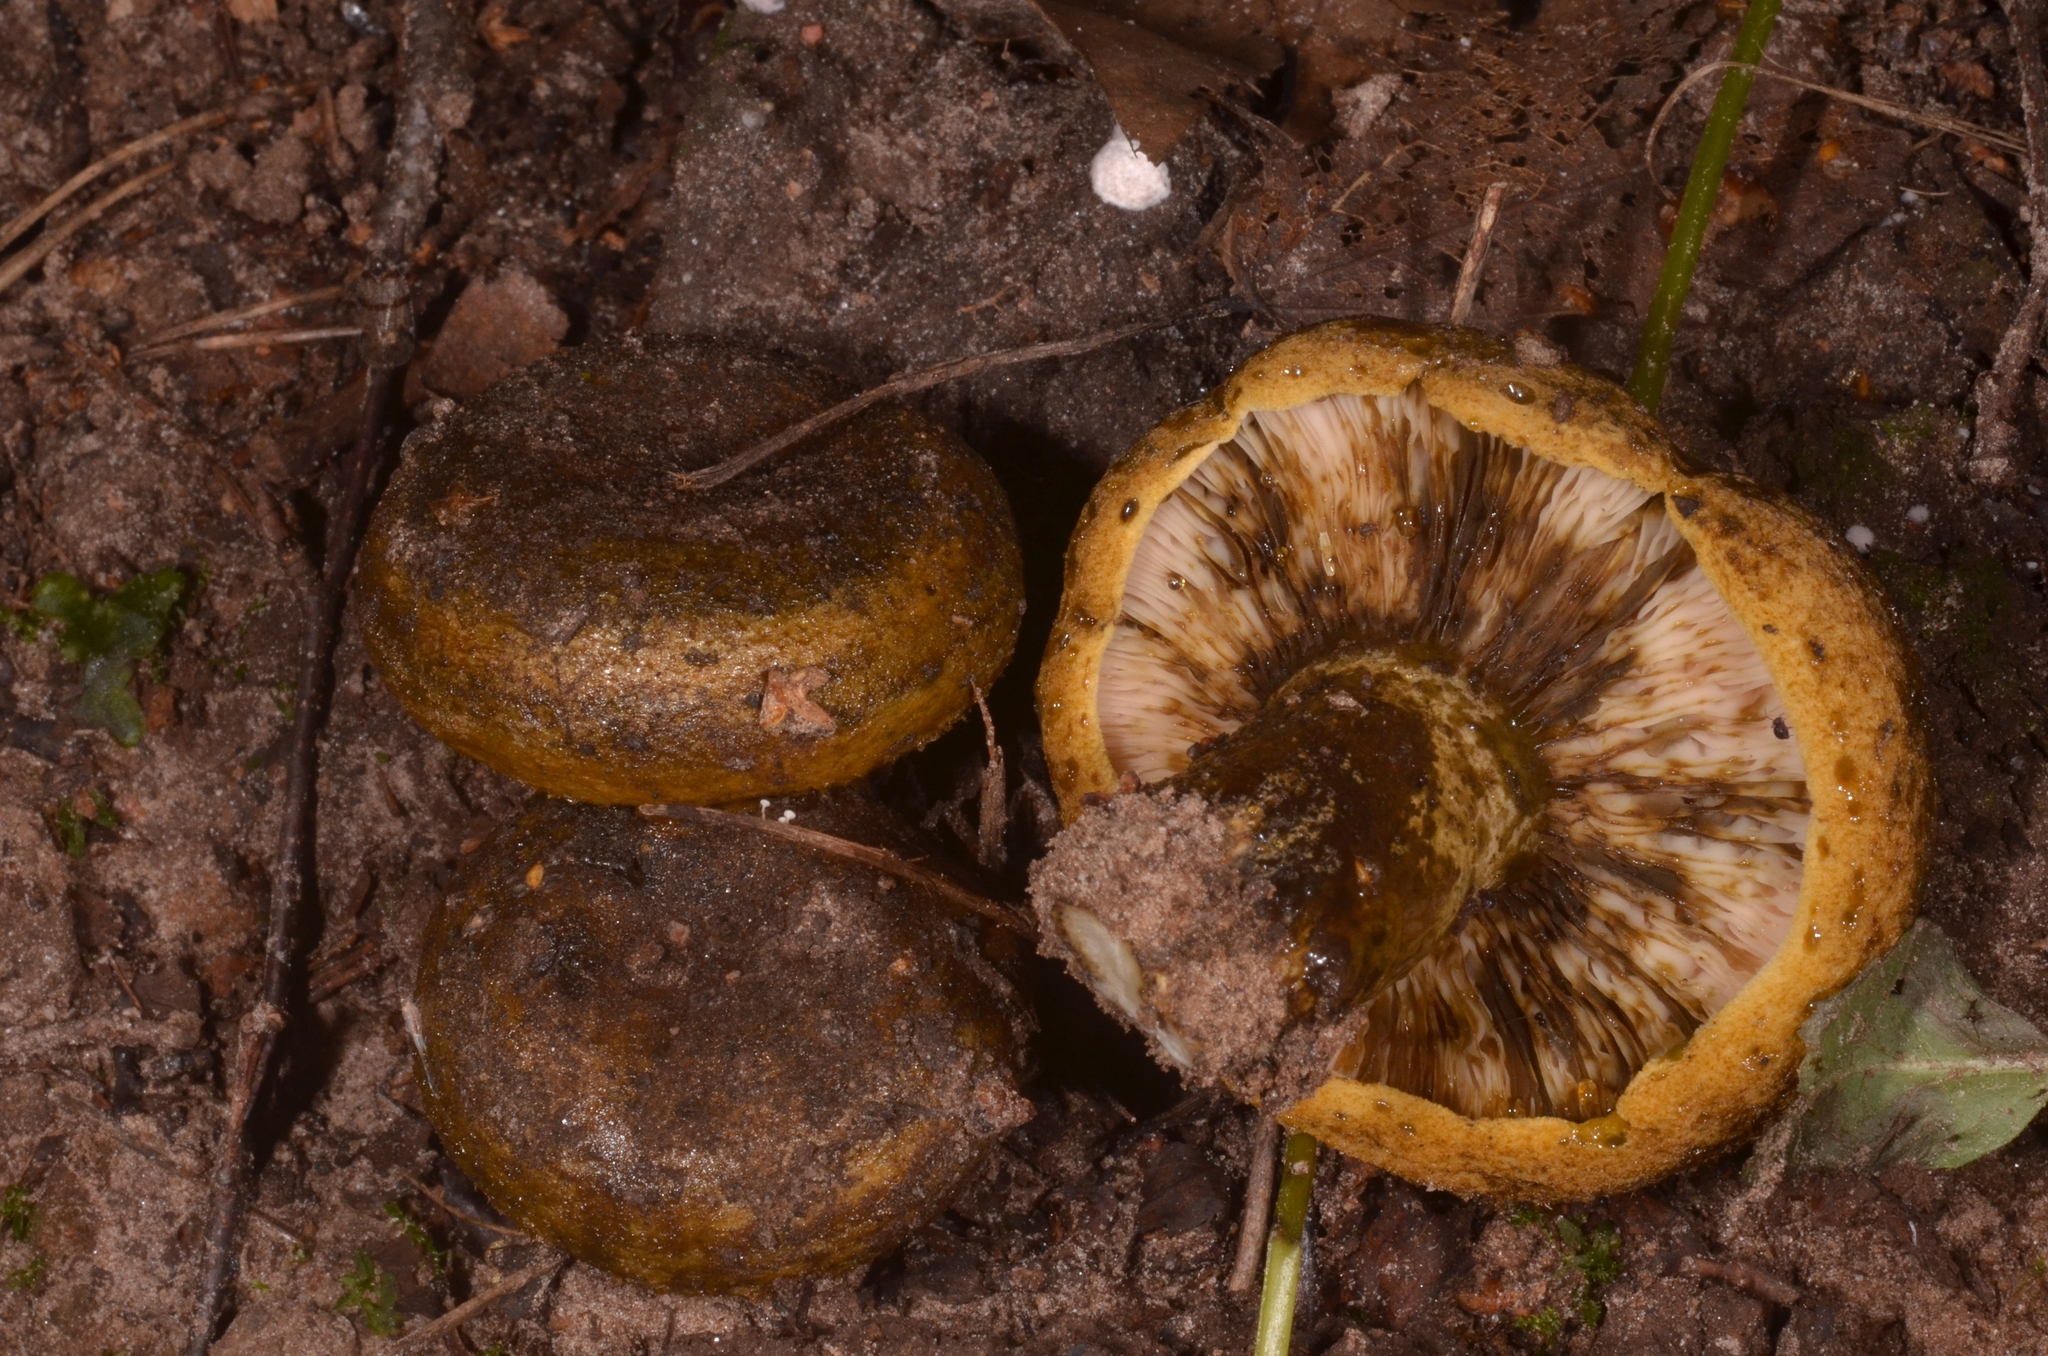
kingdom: Fungi
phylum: Basidiomycota
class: Agaricomycetes
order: Russulales
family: Russulaceae
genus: Lactarius
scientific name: Lactarius turpis
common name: Ugly milk-cap
